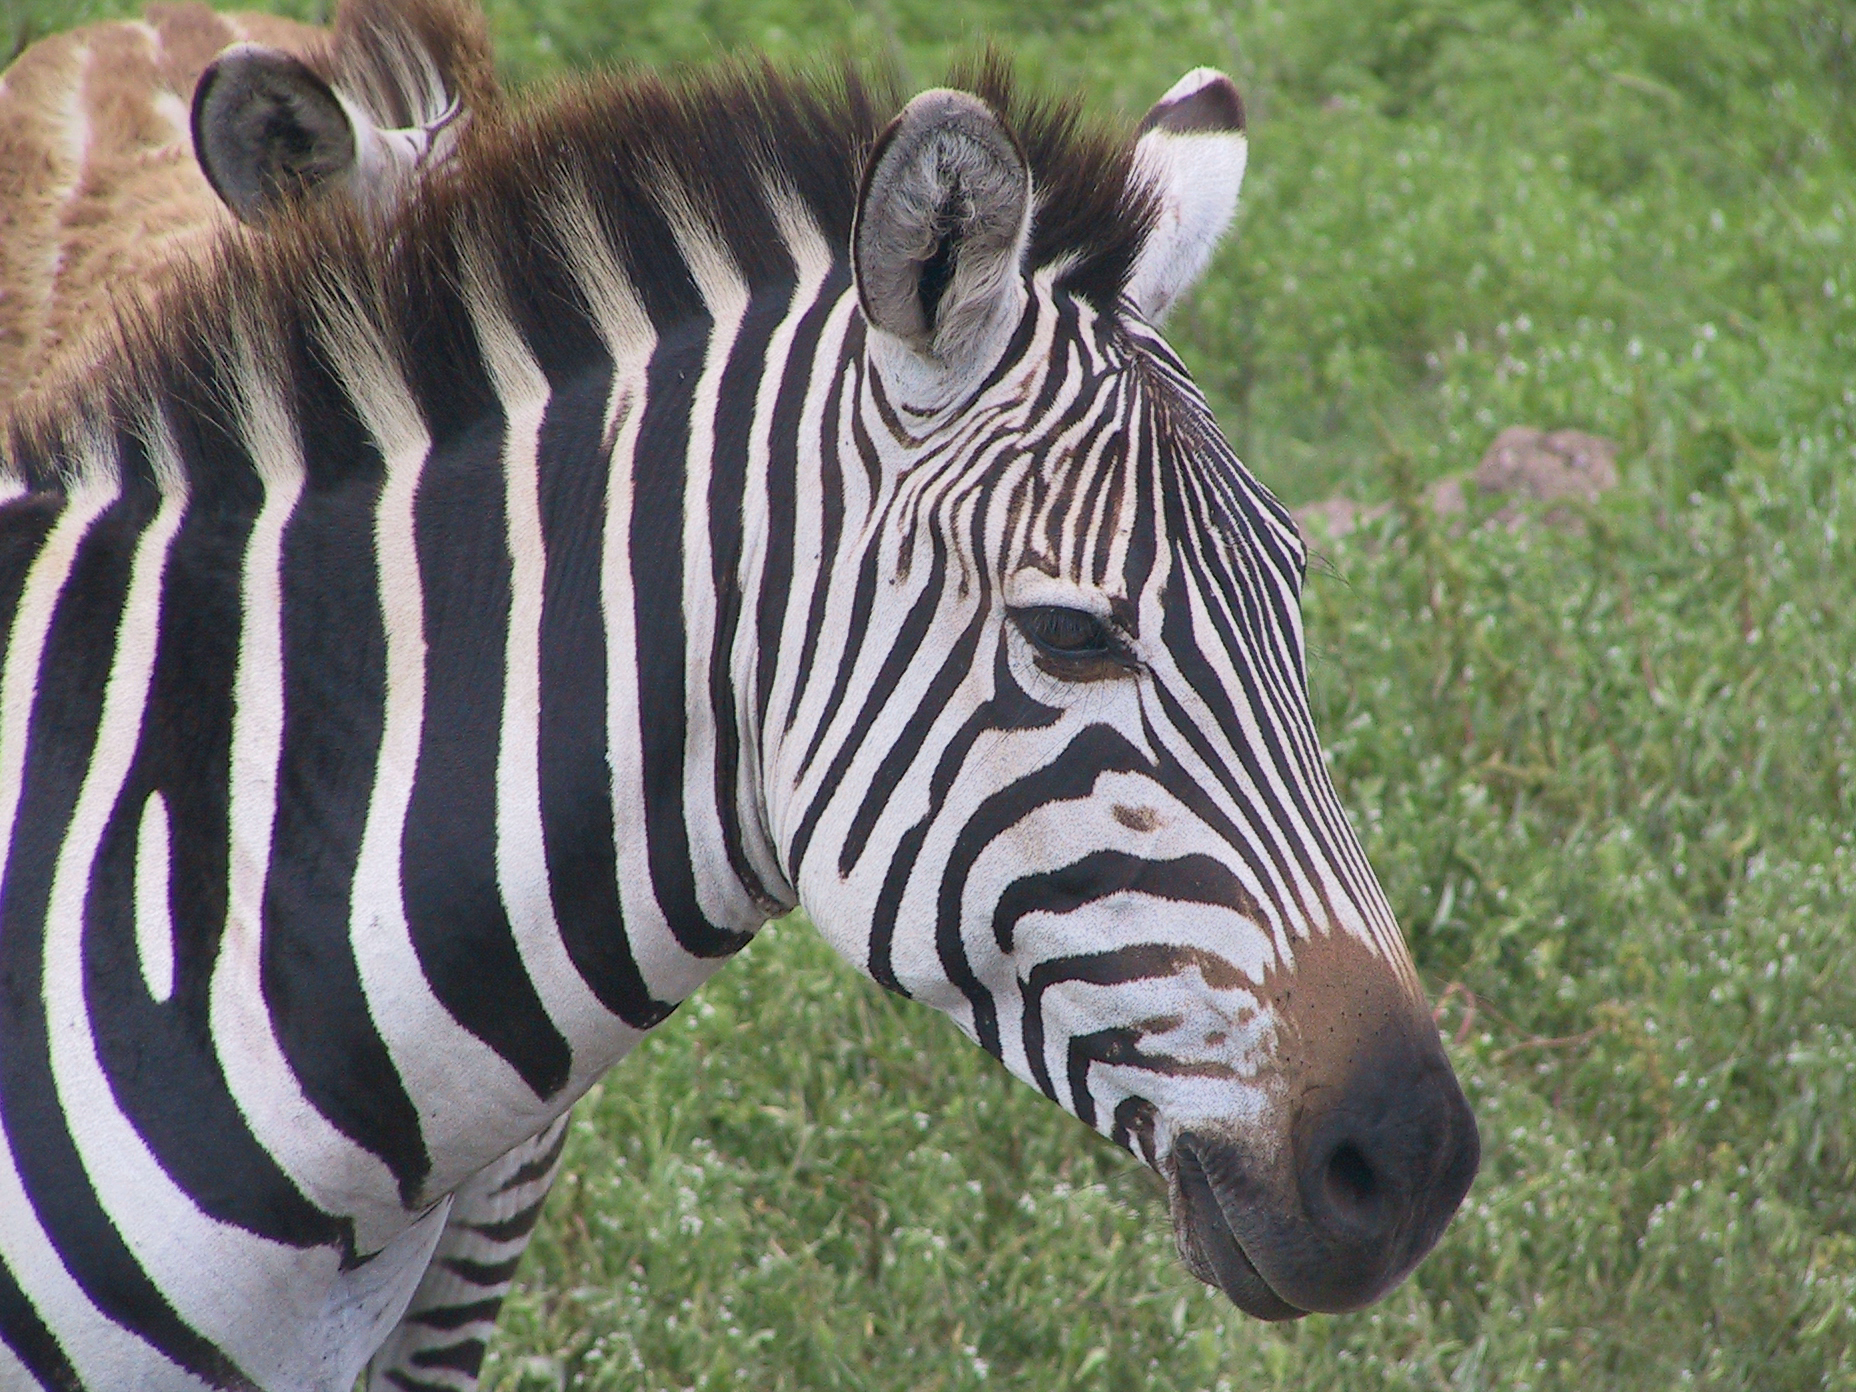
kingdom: Animalia
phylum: Chordata
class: Mammalia
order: Perissodactyla
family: Equidae
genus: Equus
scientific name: Equus quagga
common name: Plains zebra
